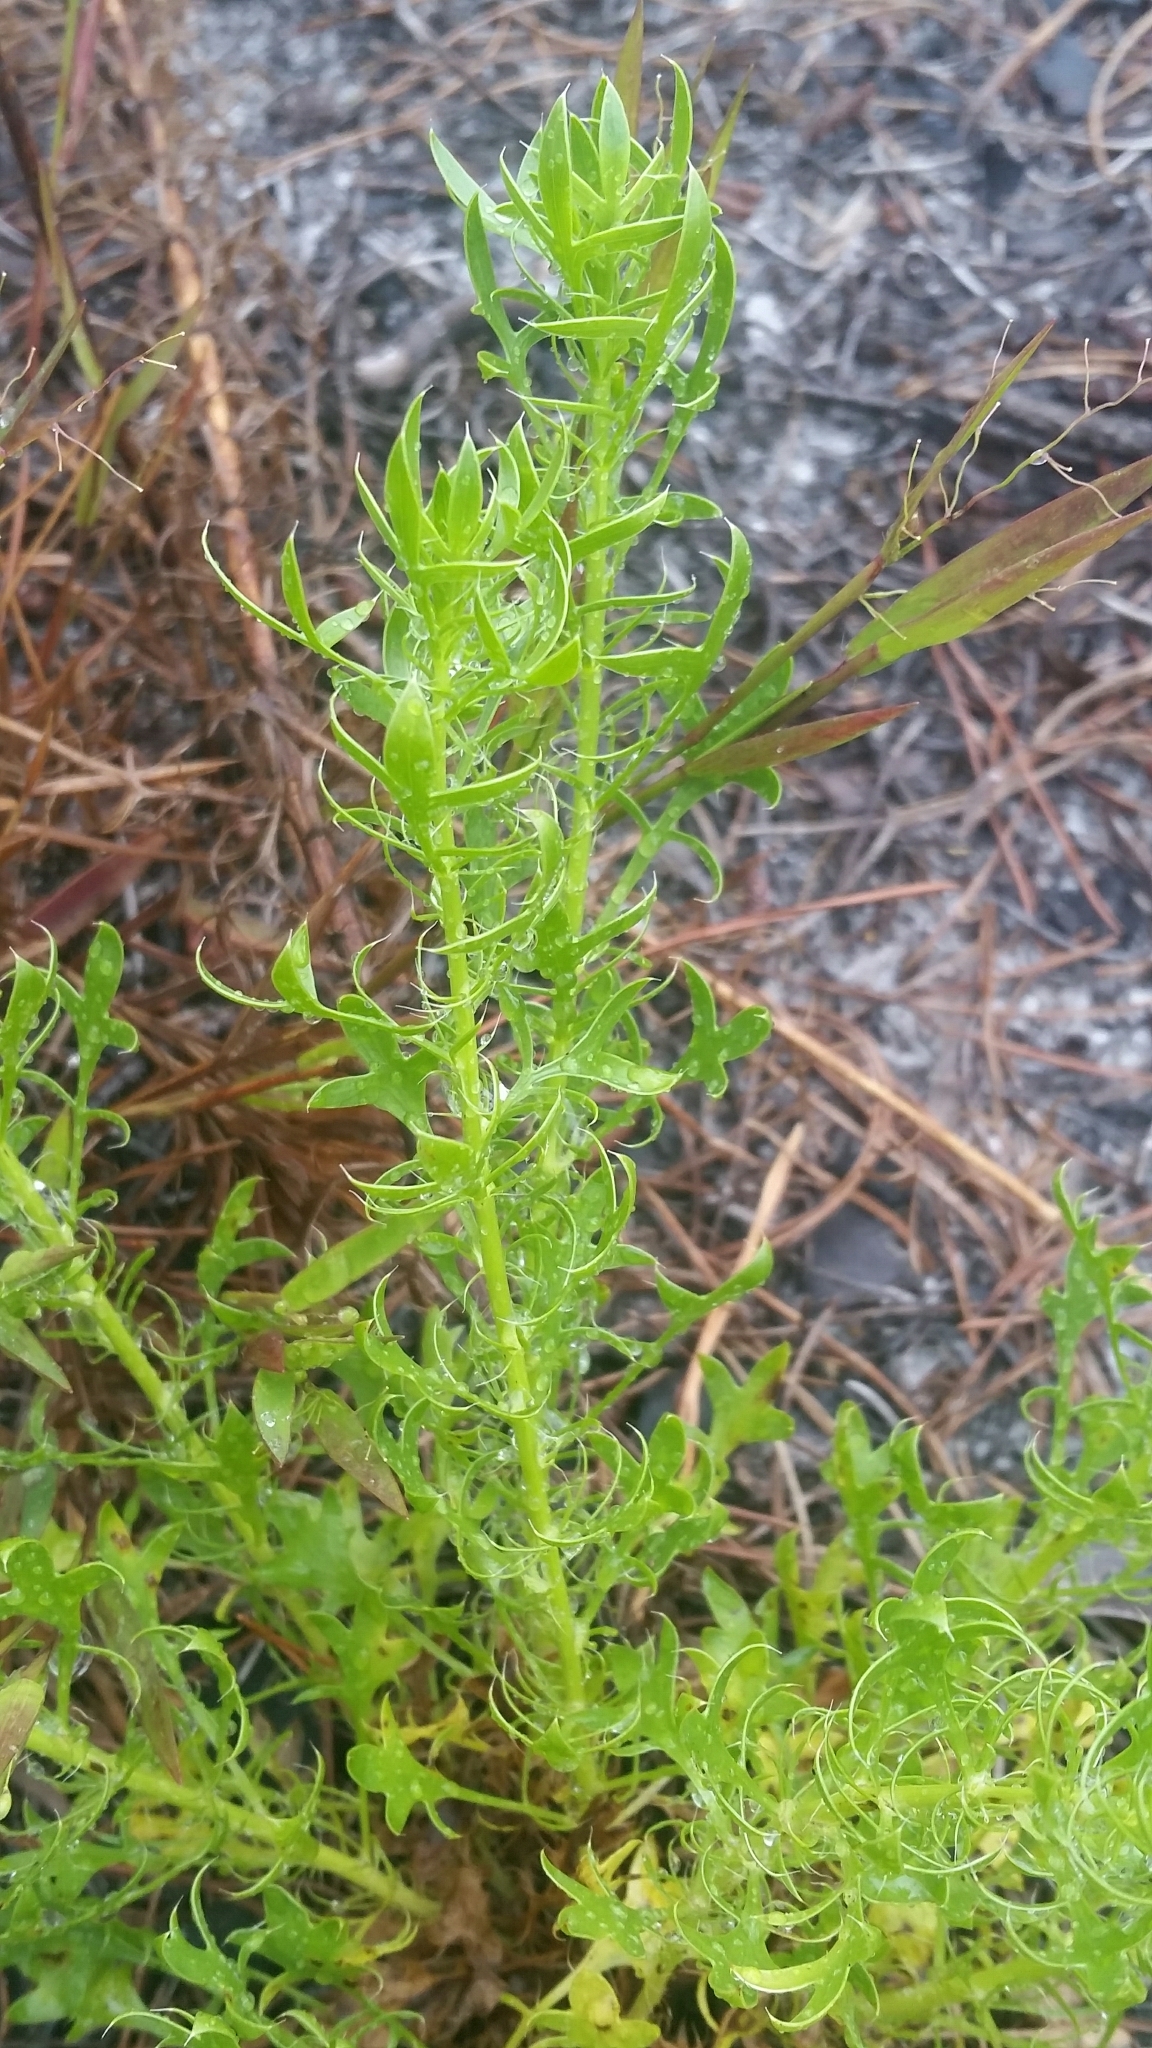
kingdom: Plantae
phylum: Tracheophyta
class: Magnoliopsida
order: Apiales
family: Apiaceae
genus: Eryngium
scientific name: Eryngium aromaticum
